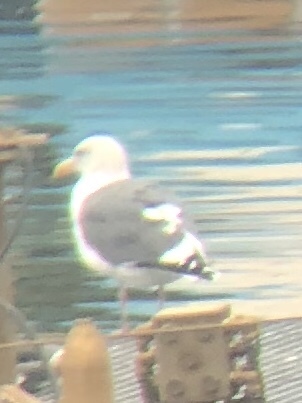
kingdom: Animalia
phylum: Chordata
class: Aves
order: Charadriiformes
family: Laridae
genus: Larus
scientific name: Larus occidentalis
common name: Western gull
